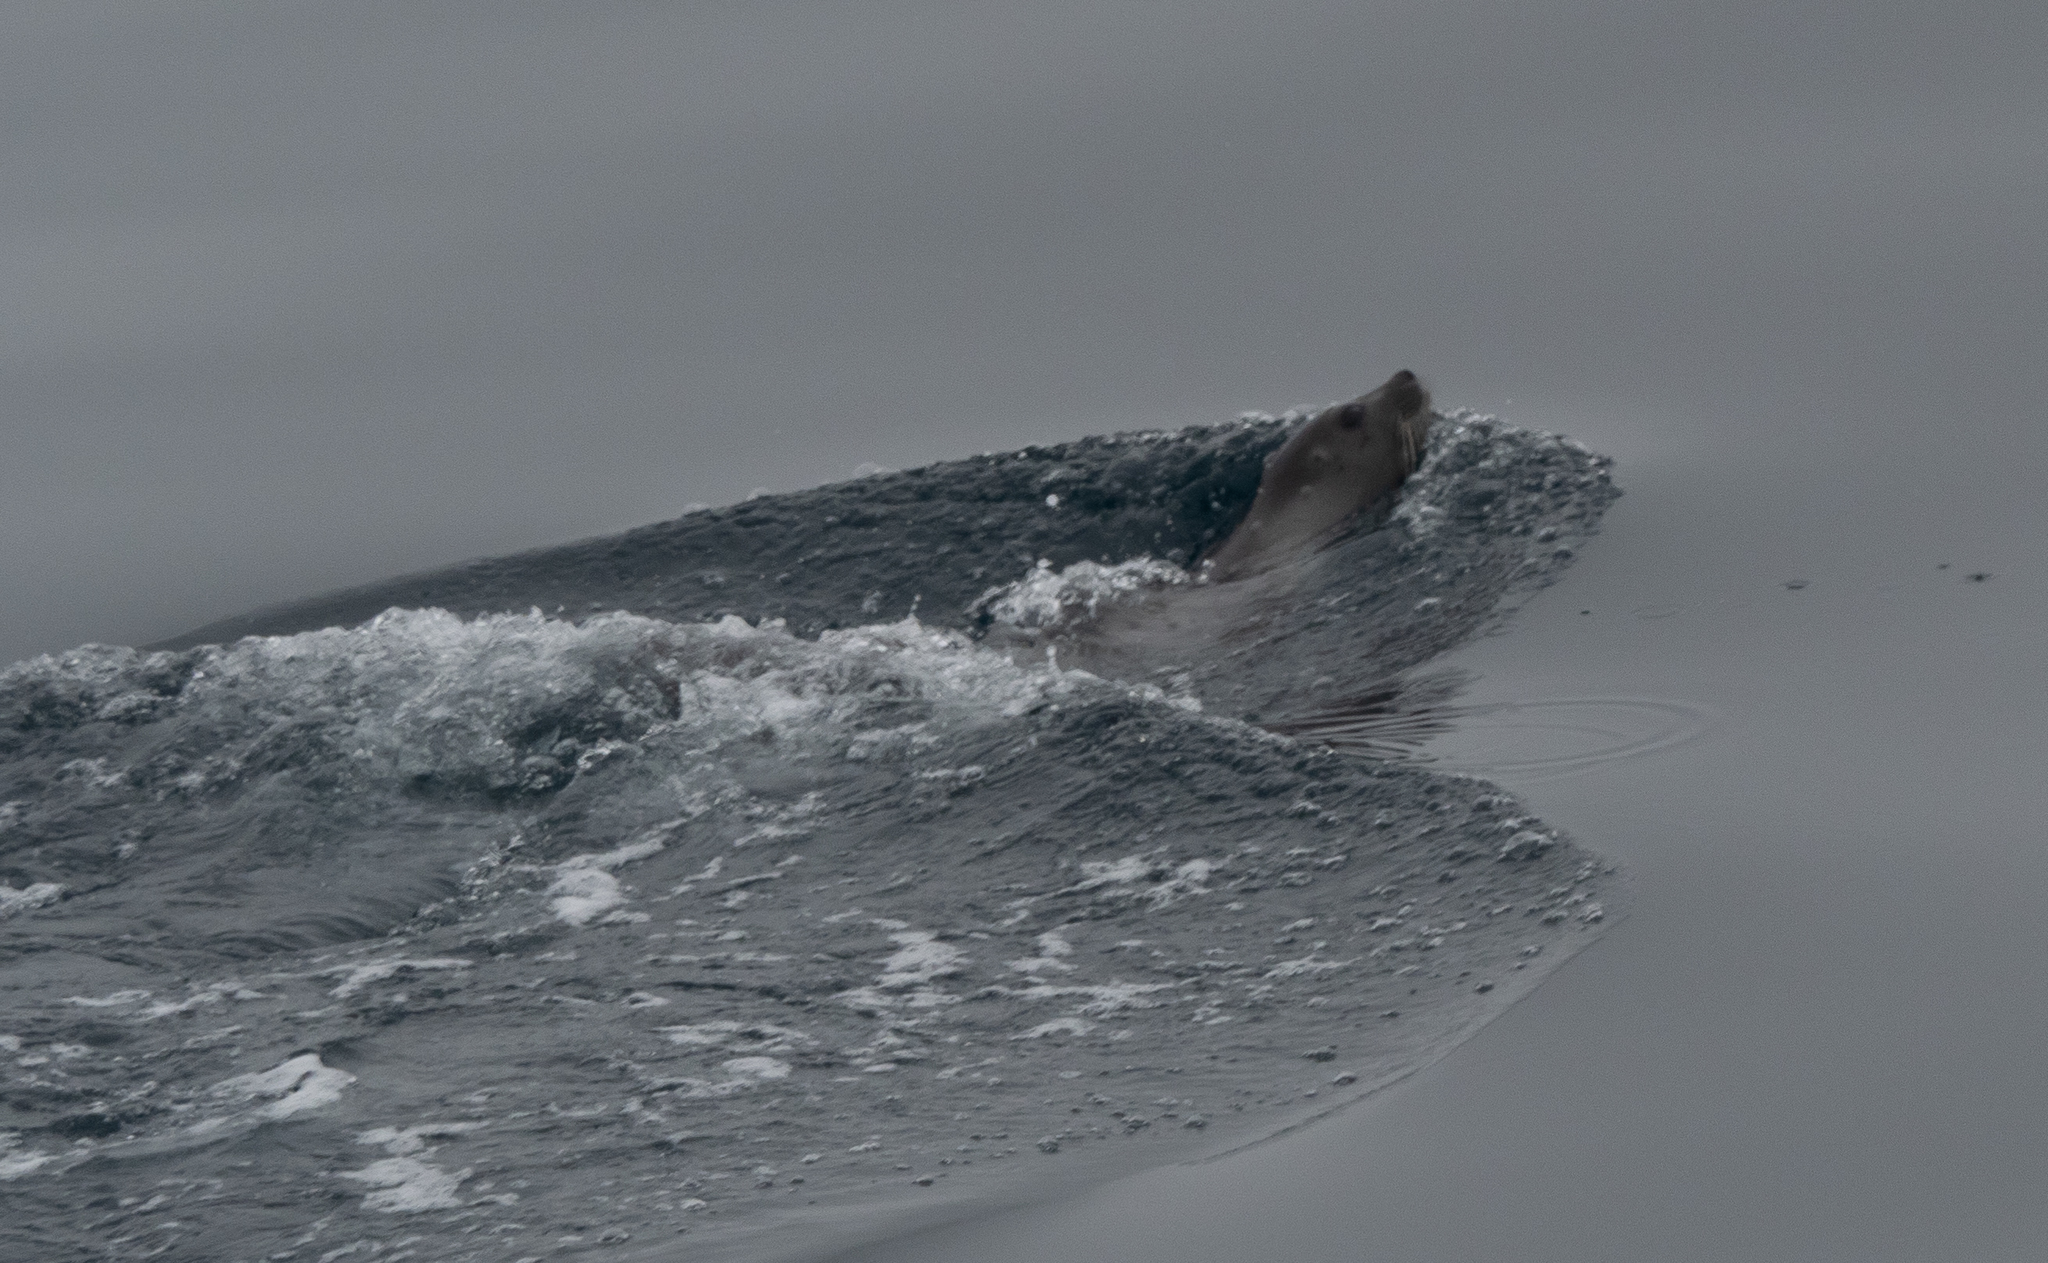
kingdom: Animalia
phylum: Chordata
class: Mammalia
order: Carnivora
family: Phocidae
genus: Pagophilus
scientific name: Pagophilus groenlandicus
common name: Harp seal
